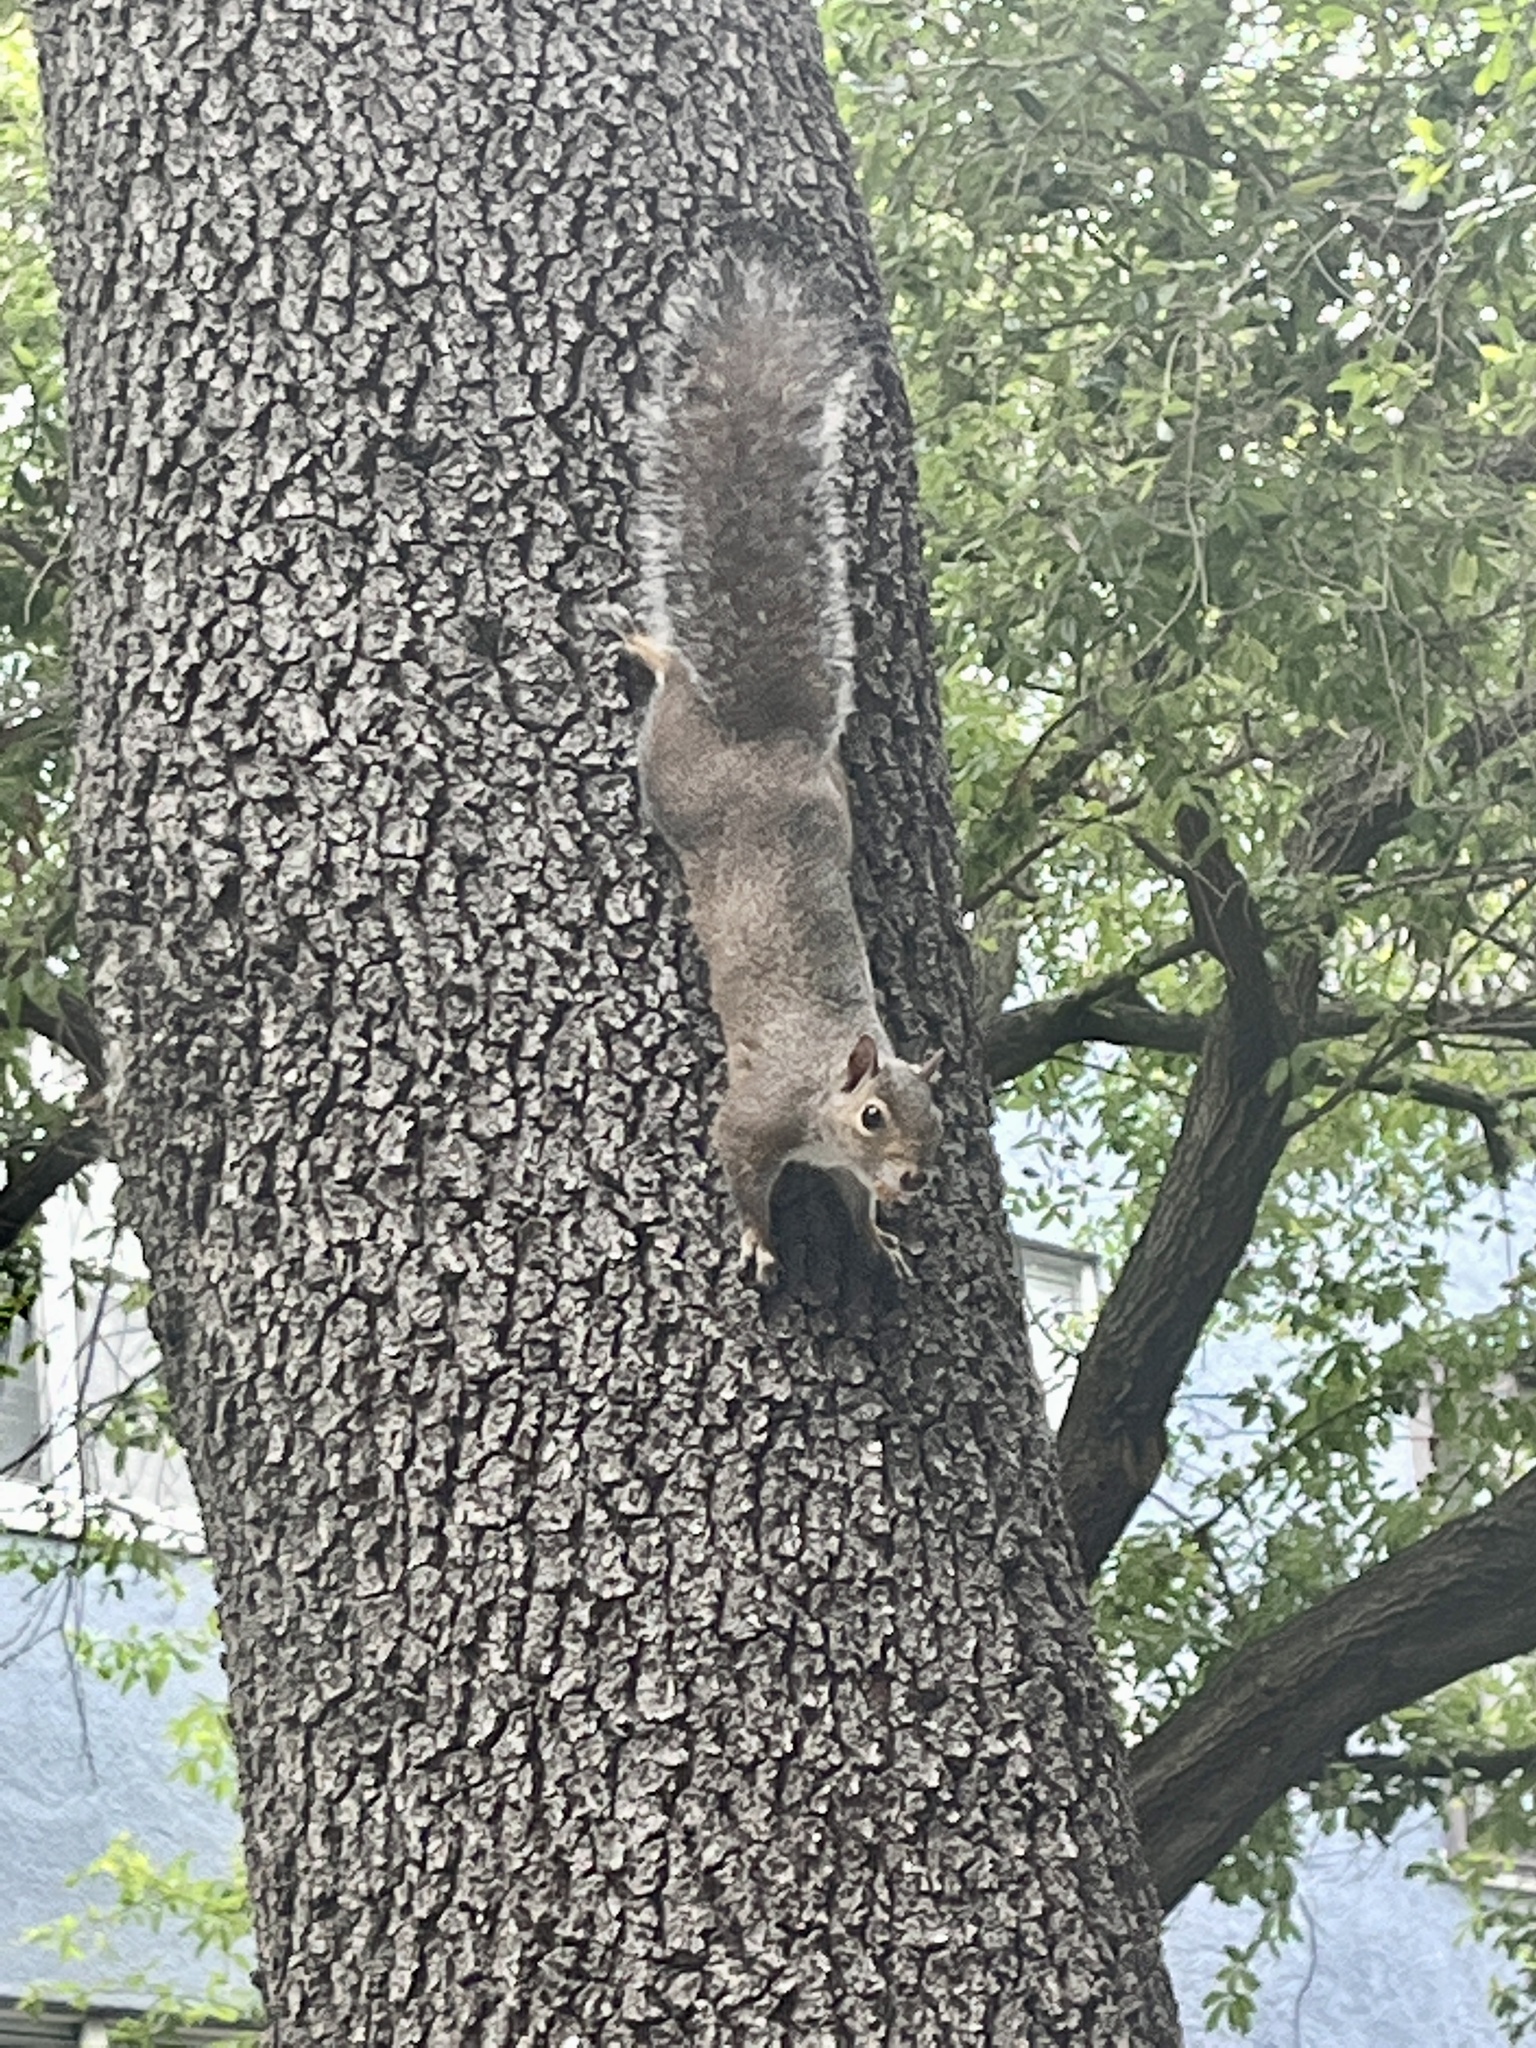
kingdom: Animalia
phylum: Chordata
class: Mammalia
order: Rodentia
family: Sciuridae
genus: Sciurus
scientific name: Sciurus carolinensis
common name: Eastern gray squirrel
